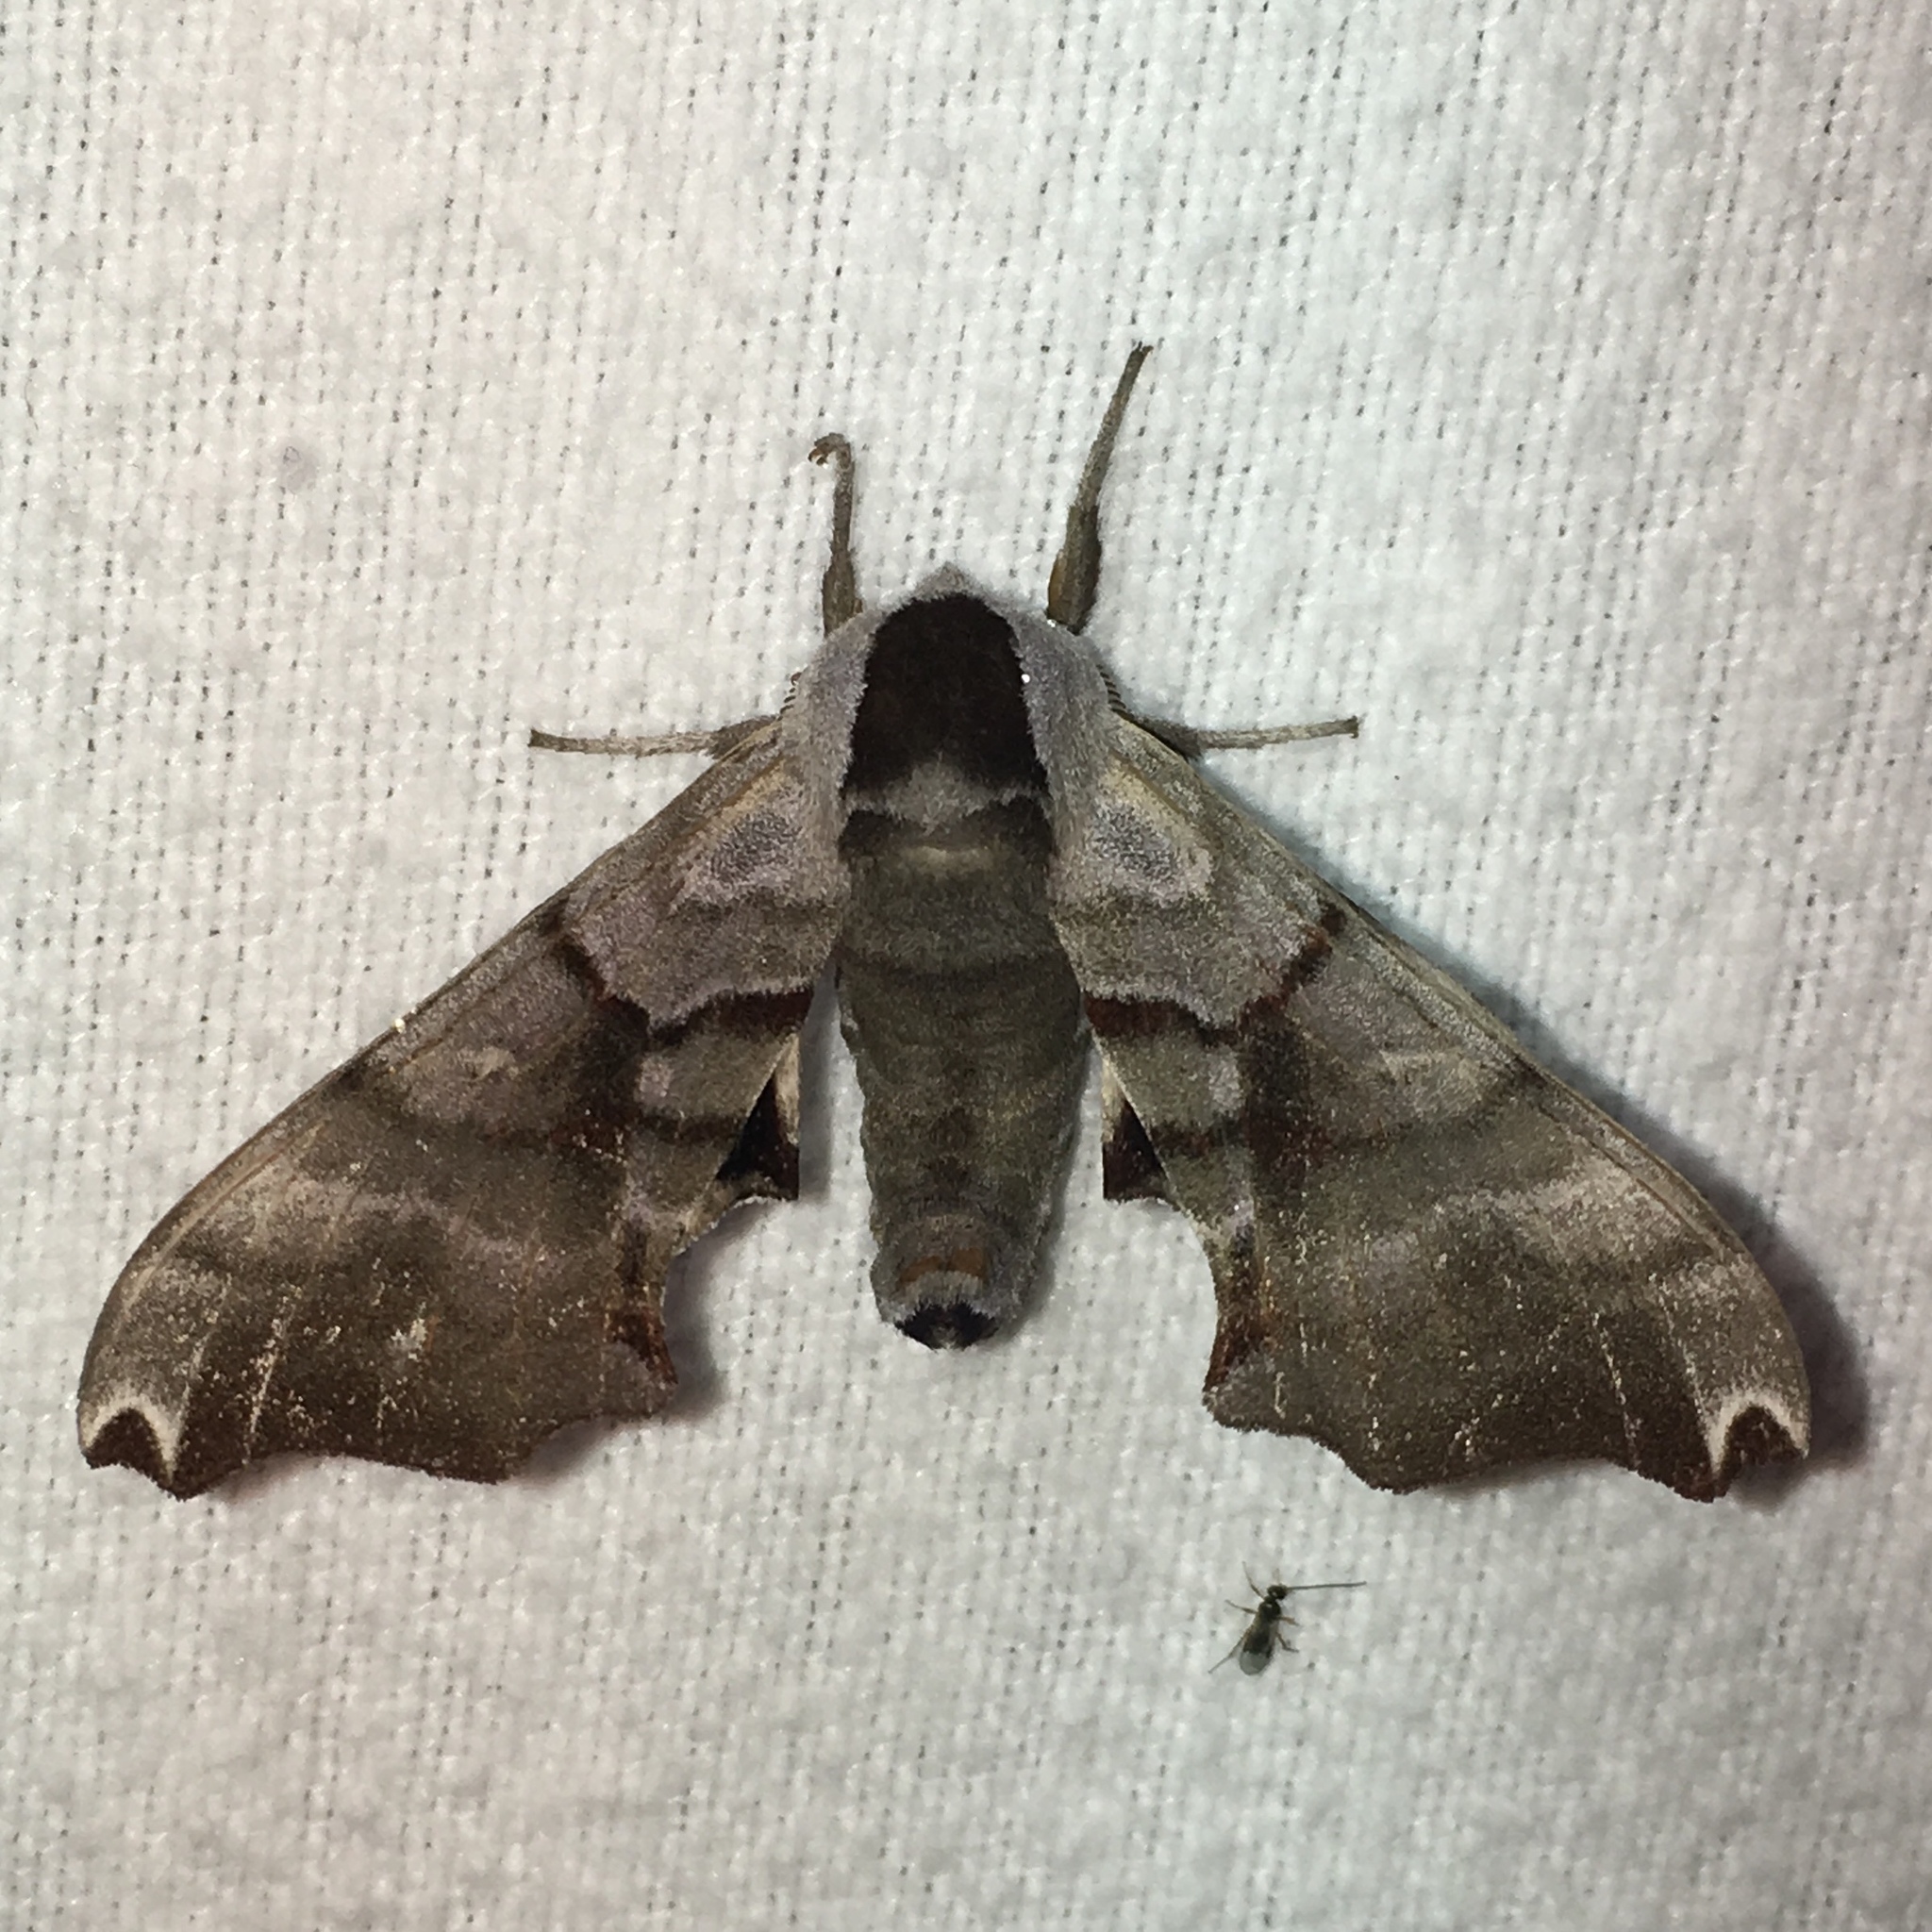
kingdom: Animalia
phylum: Arthropoda
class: Insecta
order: Lepidoptera
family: Sphingidae
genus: Smerinthus
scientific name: Smerinthus jamaicensis
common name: Twin spotted sphinx
